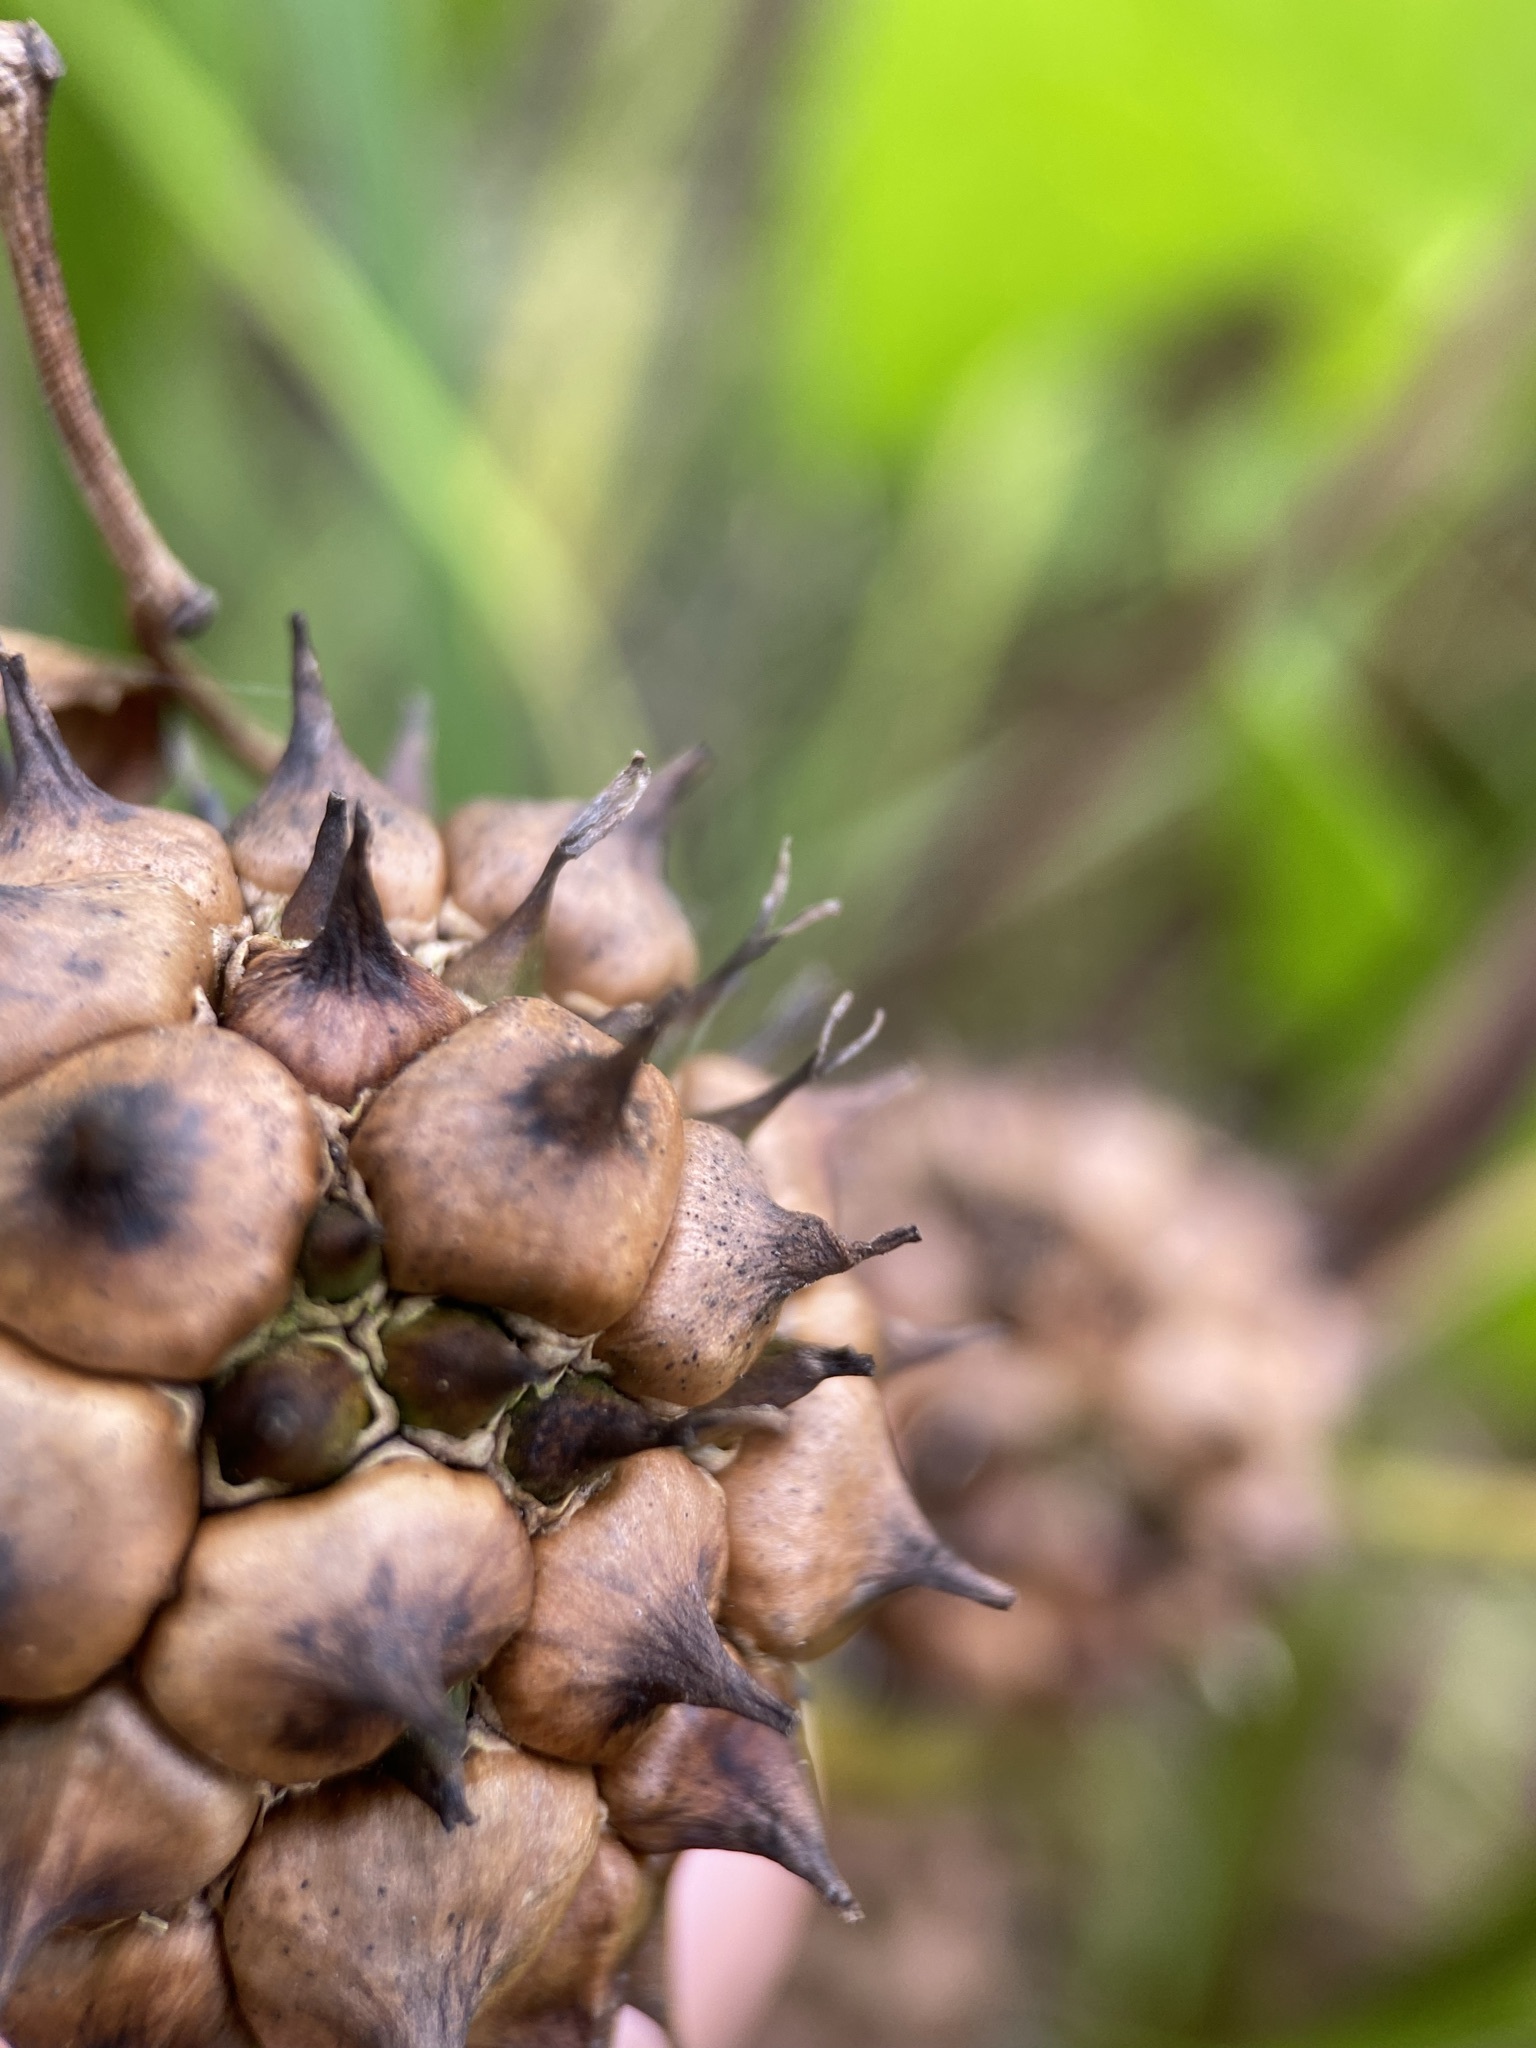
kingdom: Plantae
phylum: Tracheophyta
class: Liliopsida
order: Poales
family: Typhaceae
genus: Sparganium
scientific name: Sparganium eurycarpum
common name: Broad-fruited burreed
